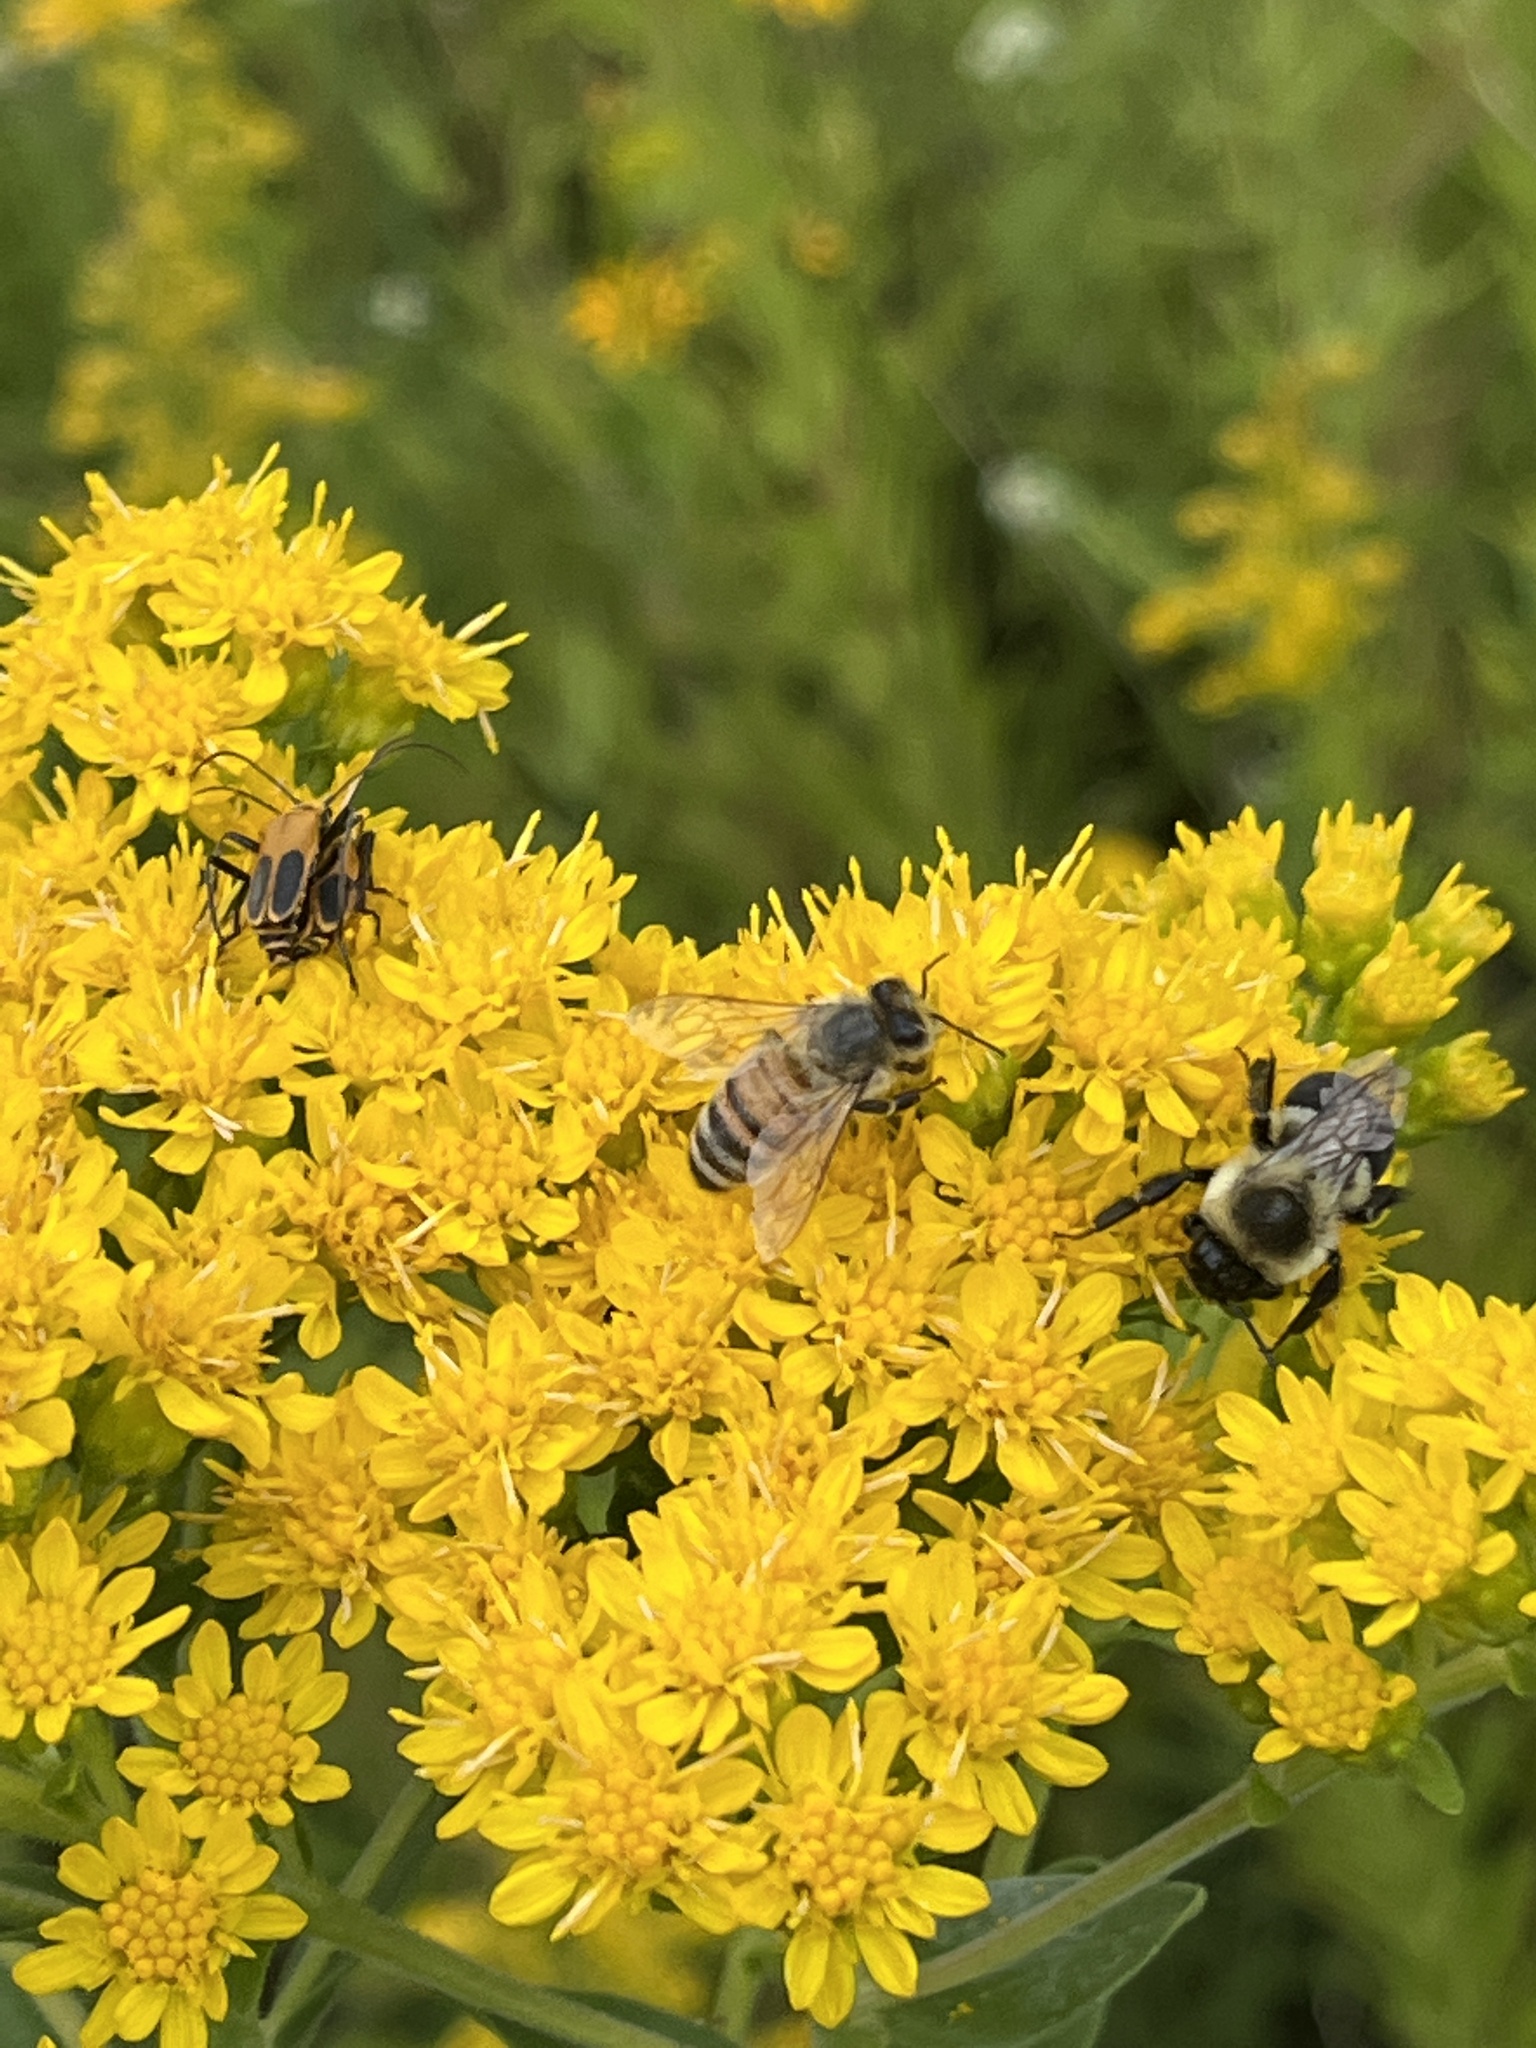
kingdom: Animalia
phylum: Arthropoda
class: Insecta
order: Coleoptera
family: Cantharidae
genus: Chauliognathus
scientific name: Chauliognathus pensylvanicus
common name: Goldenrod soldier beetle
